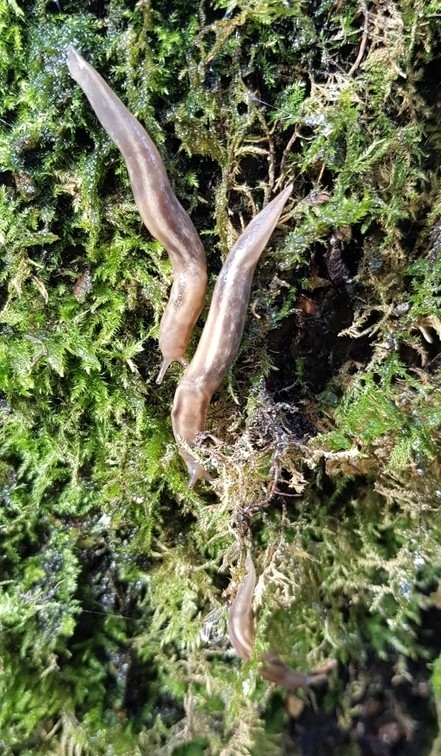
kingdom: Animalia
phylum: Mollusca
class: Gastropoda
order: Stylommatophora
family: Limacidae
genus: Lehmannia
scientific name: Lehmannia marginata
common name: Tree slug
